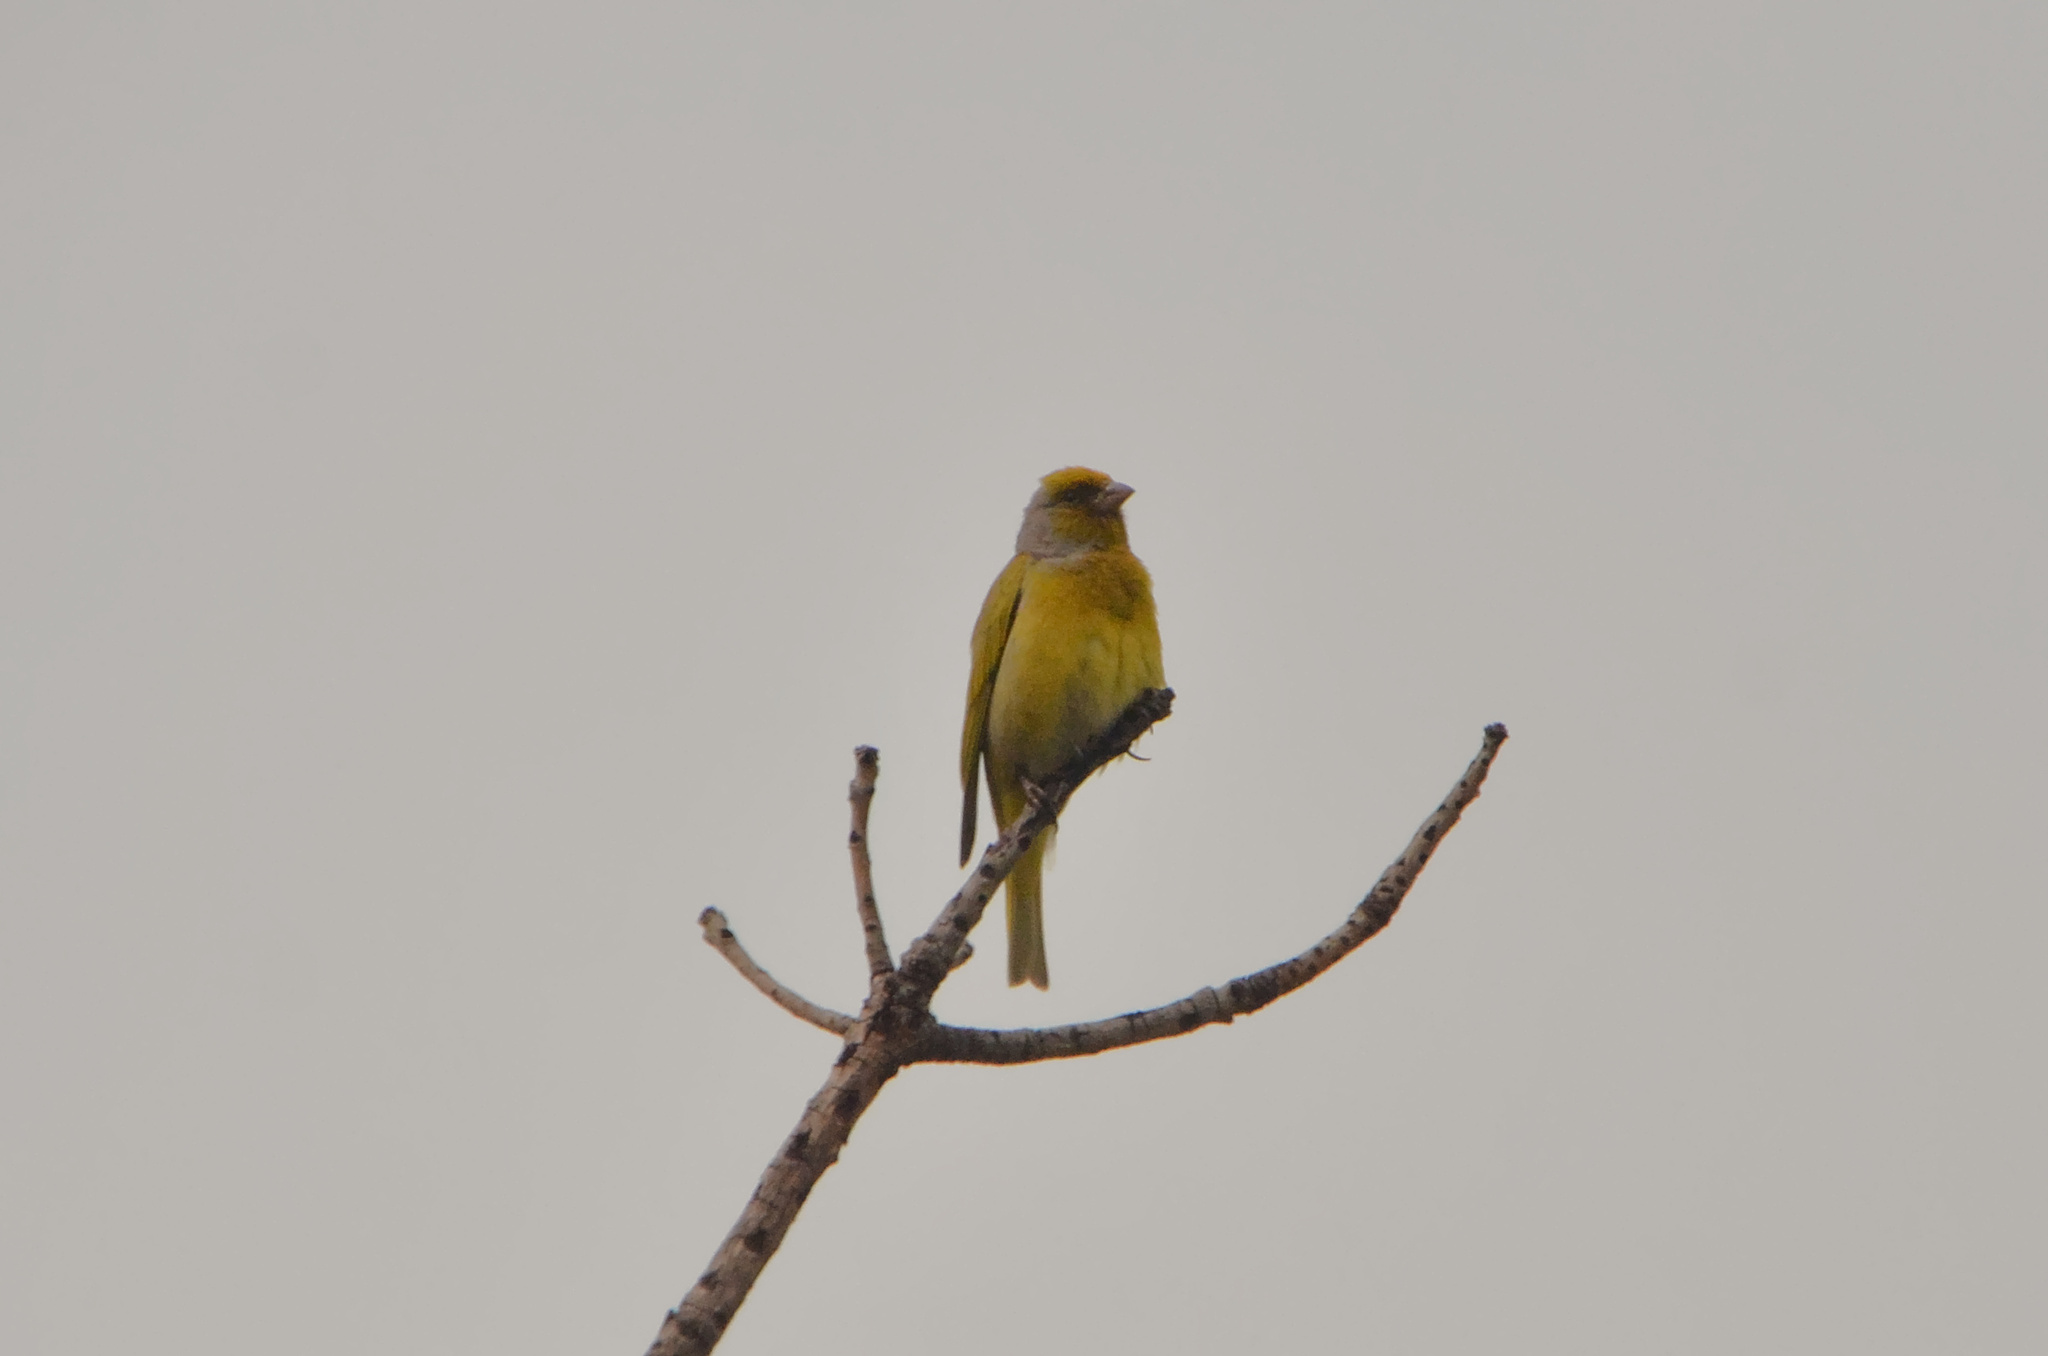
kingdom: Animalia
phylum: Chordata
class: Aves
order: Passeriformes
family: Fringillidae
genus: Serinus
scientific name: Serinus canicollis
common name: Cape canary
